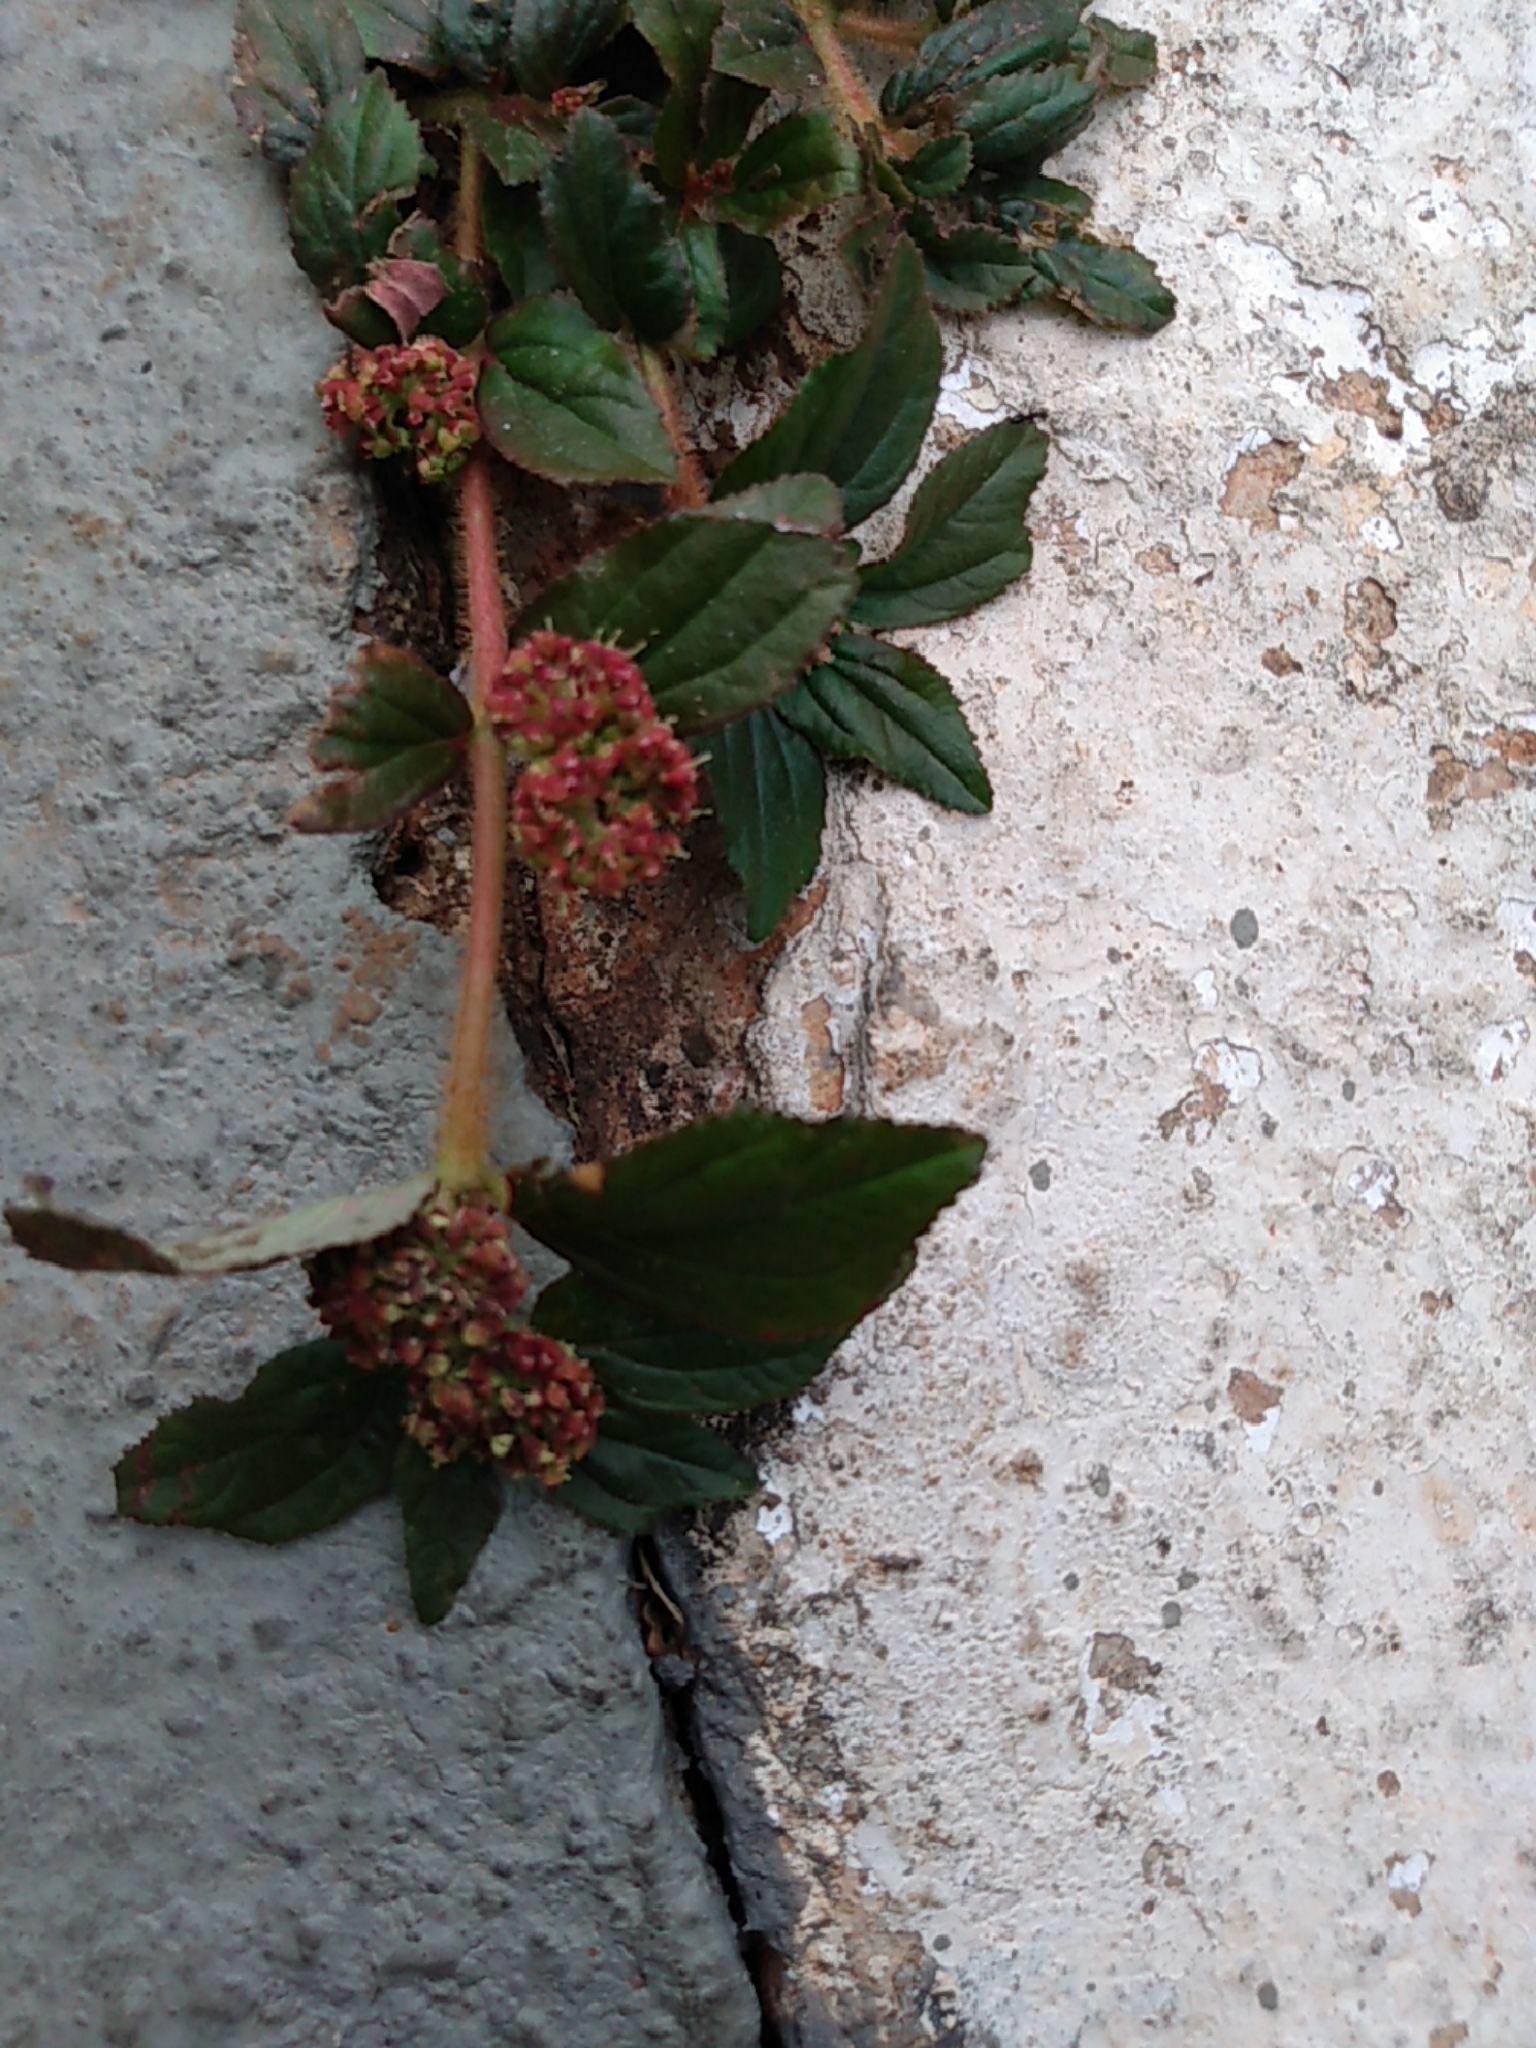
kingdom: Plantae
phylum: Tracheophyta
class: Magnoliopsida
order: Malpighiales
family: Euphorbiaceae
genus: Euphorbia
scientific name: Euphorbia hirta
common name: Pillpod sandmat
